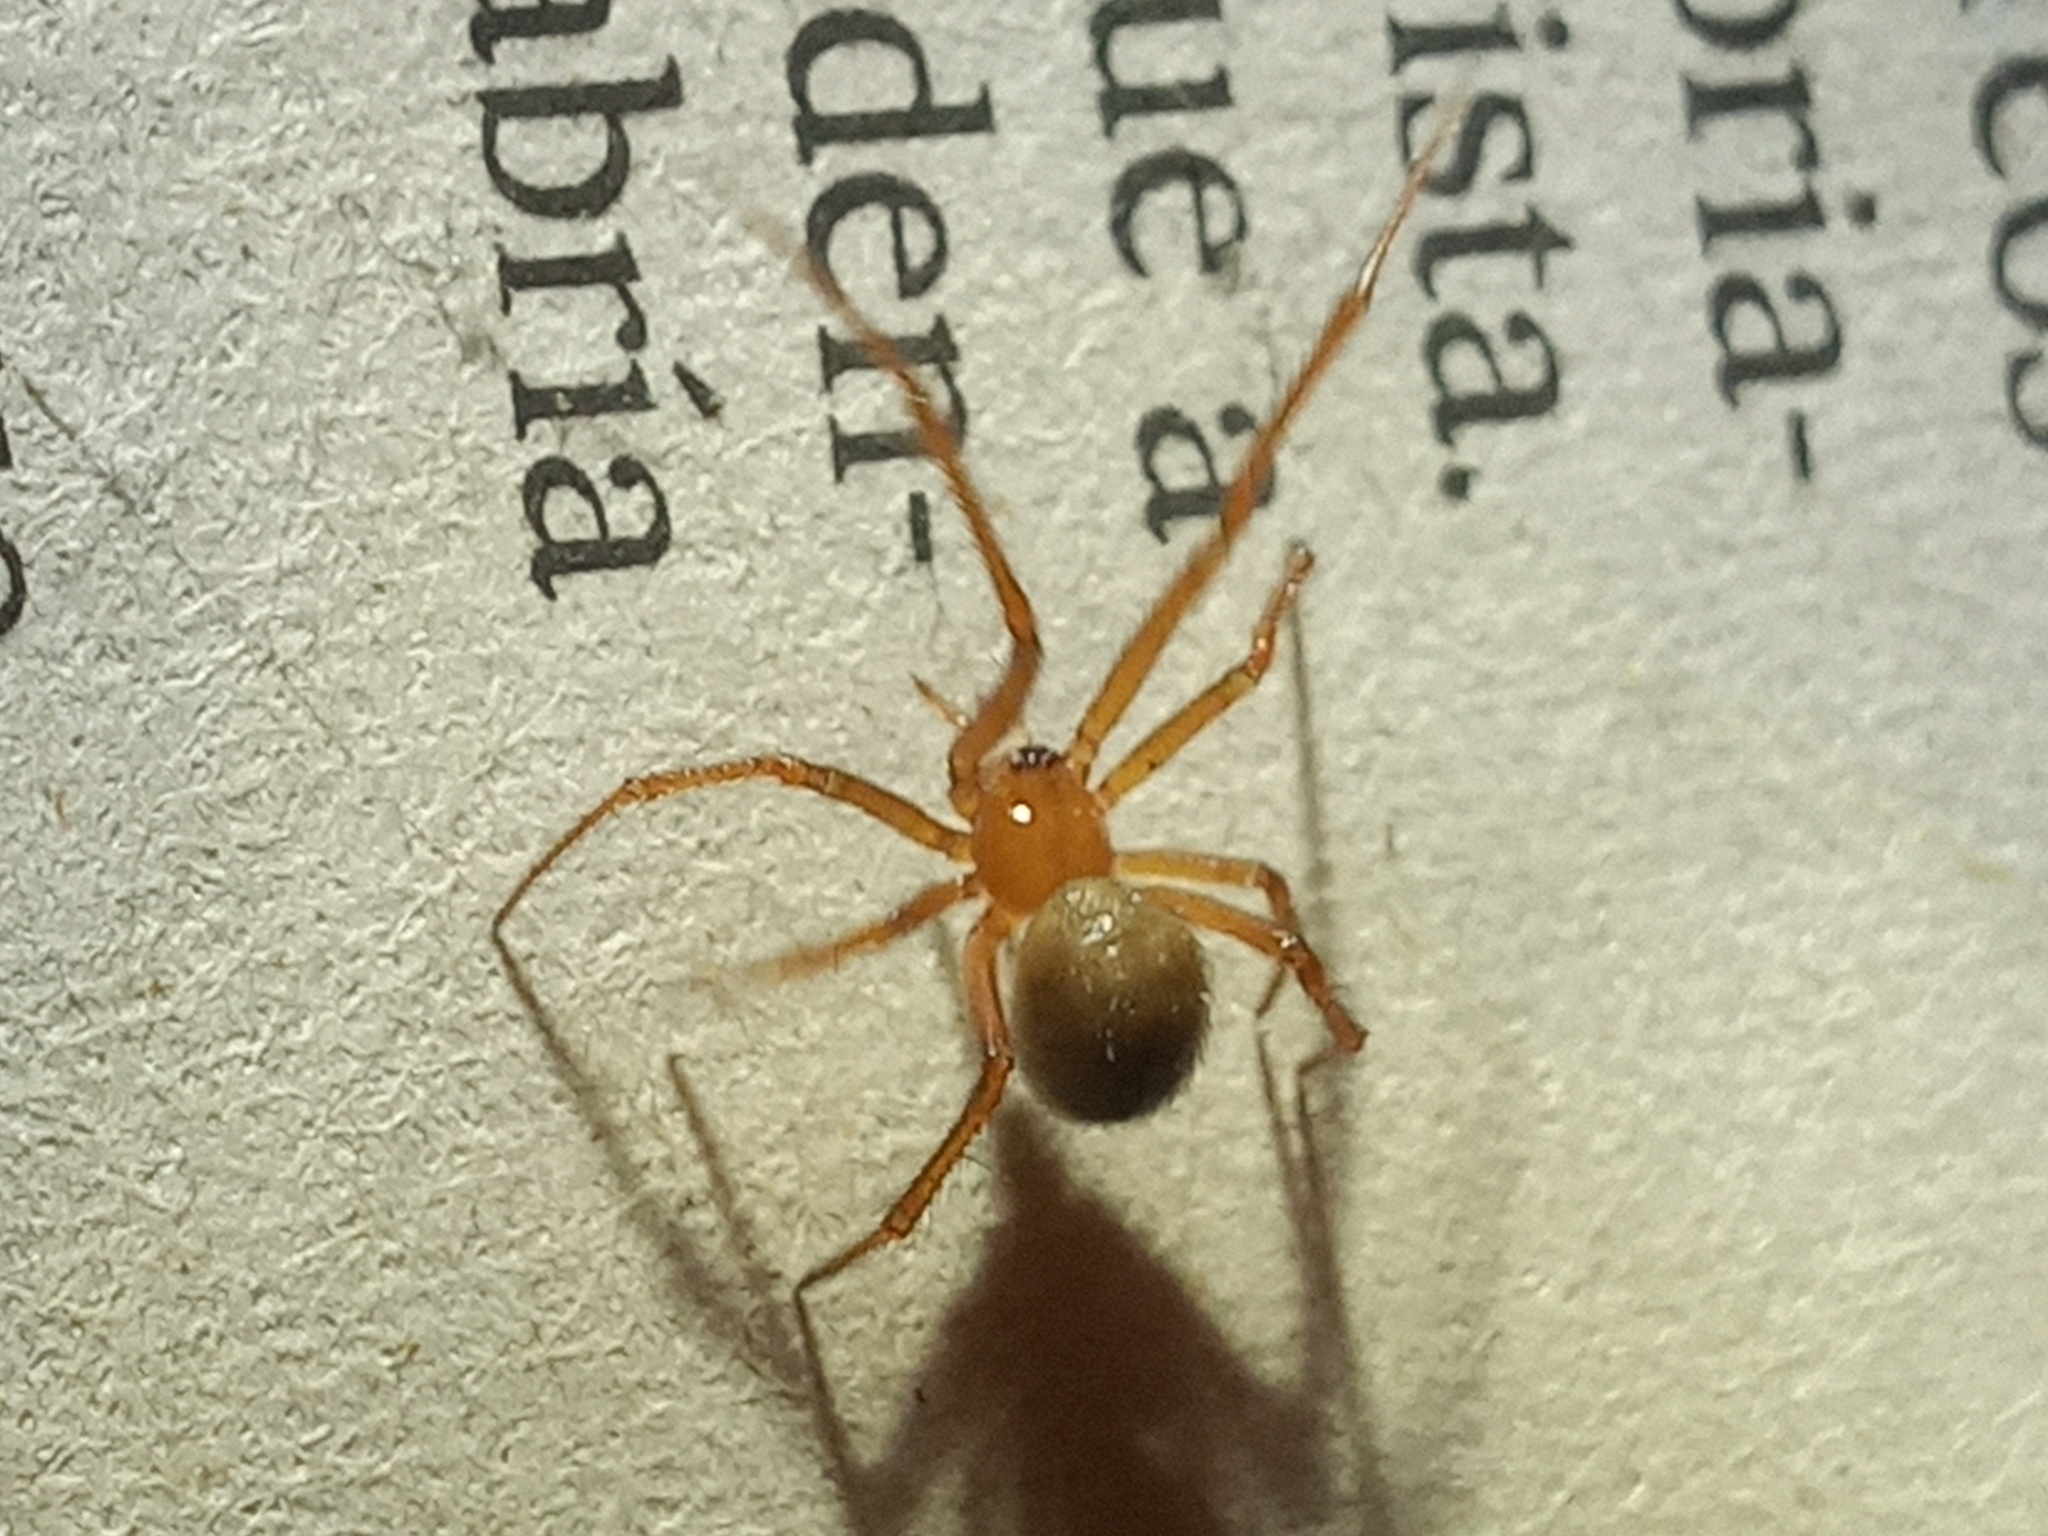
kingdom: Animalia
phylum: Arthropoda
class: Arachnida
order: Araneae
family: Theridiidae
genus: Nesticodes
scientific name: Nesticodes rufipes
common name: Cobweb spiders
